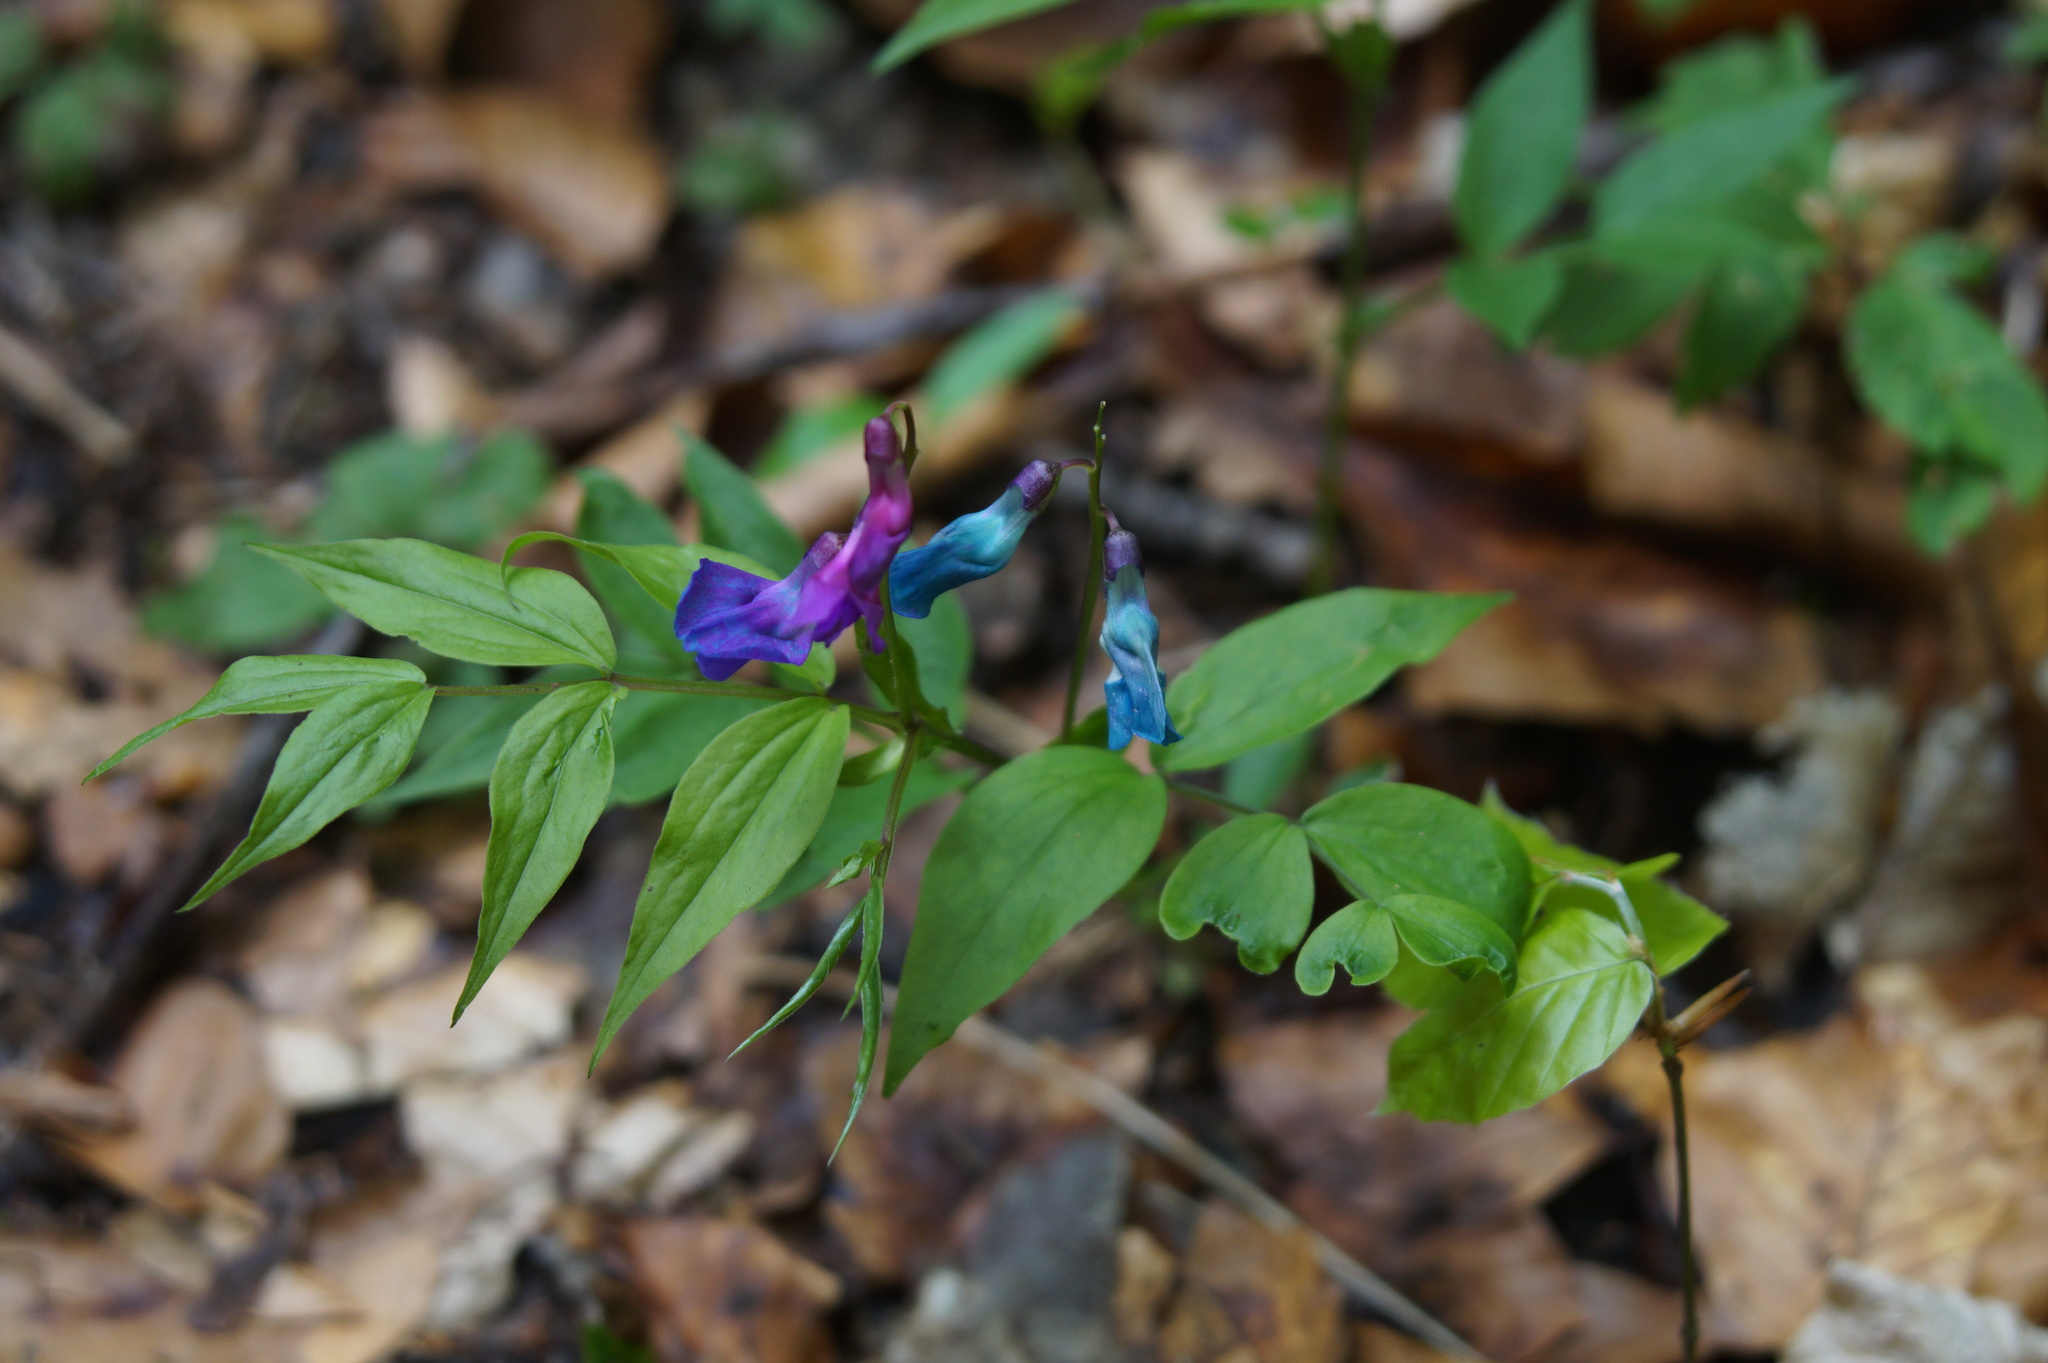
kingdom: Plantae
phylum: Tracheophyta
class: Magnoliopsida
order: Fabales
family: Fabaceae
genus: Lathyrus
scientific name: Lathyrus vernus
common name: Spring pea
